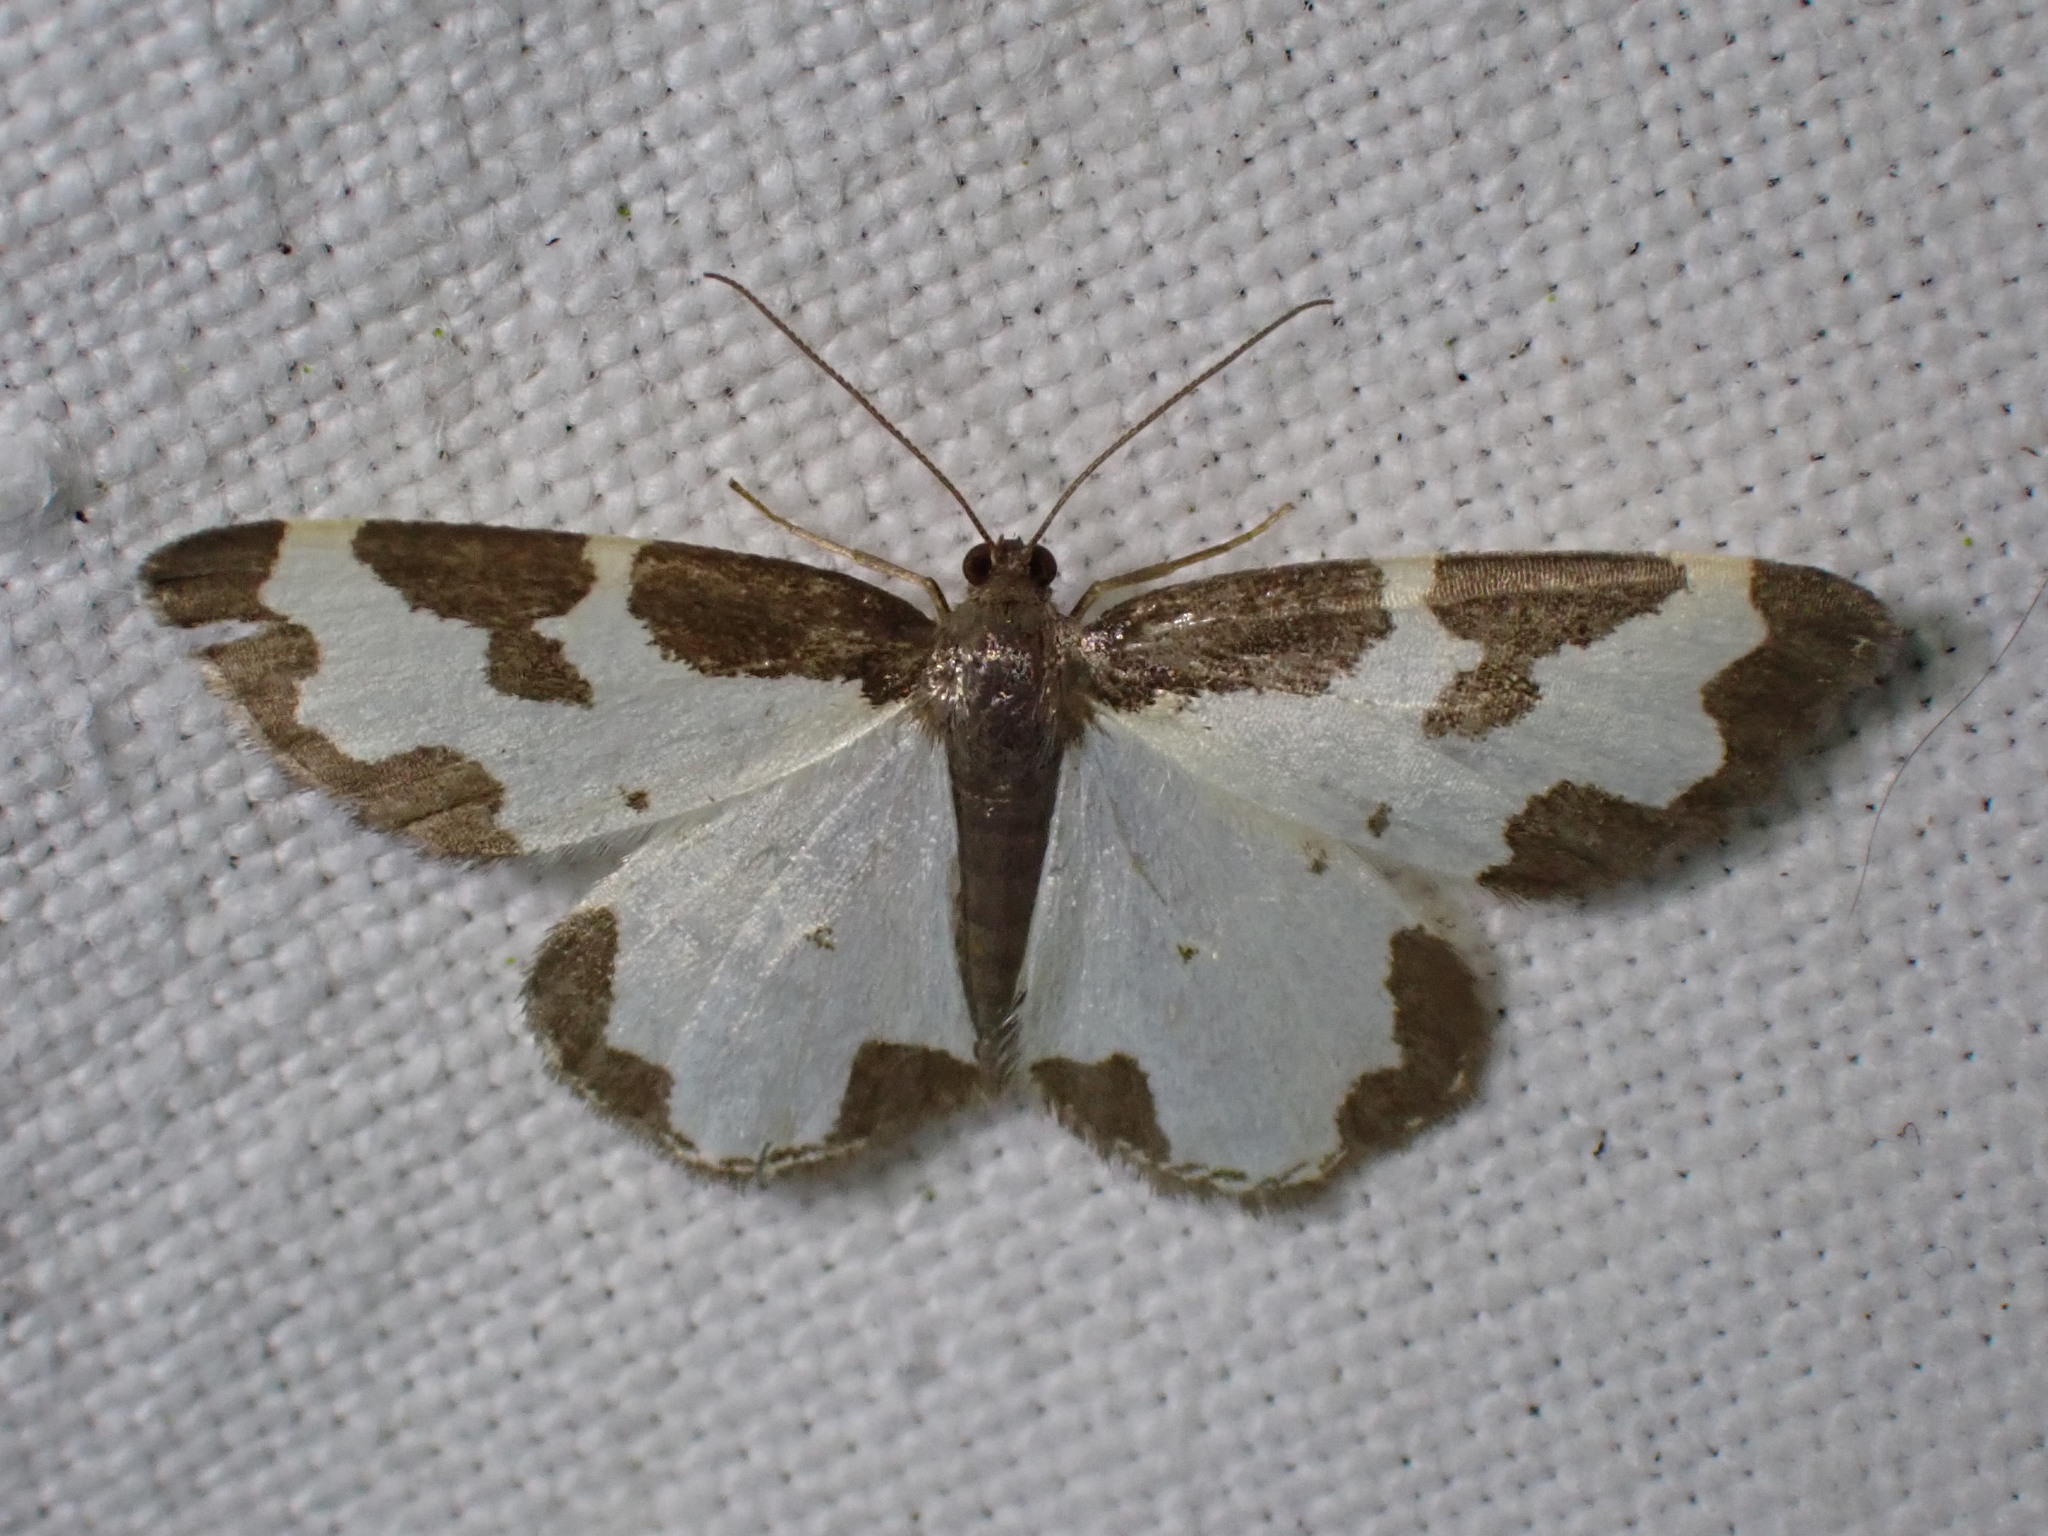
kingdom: Animalia
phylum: Arthropoda
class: Insecta
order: Lepidoptera
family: Geometridae
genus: Lomaspilis
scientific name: Lomaspilis marginata
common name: Clouded border
